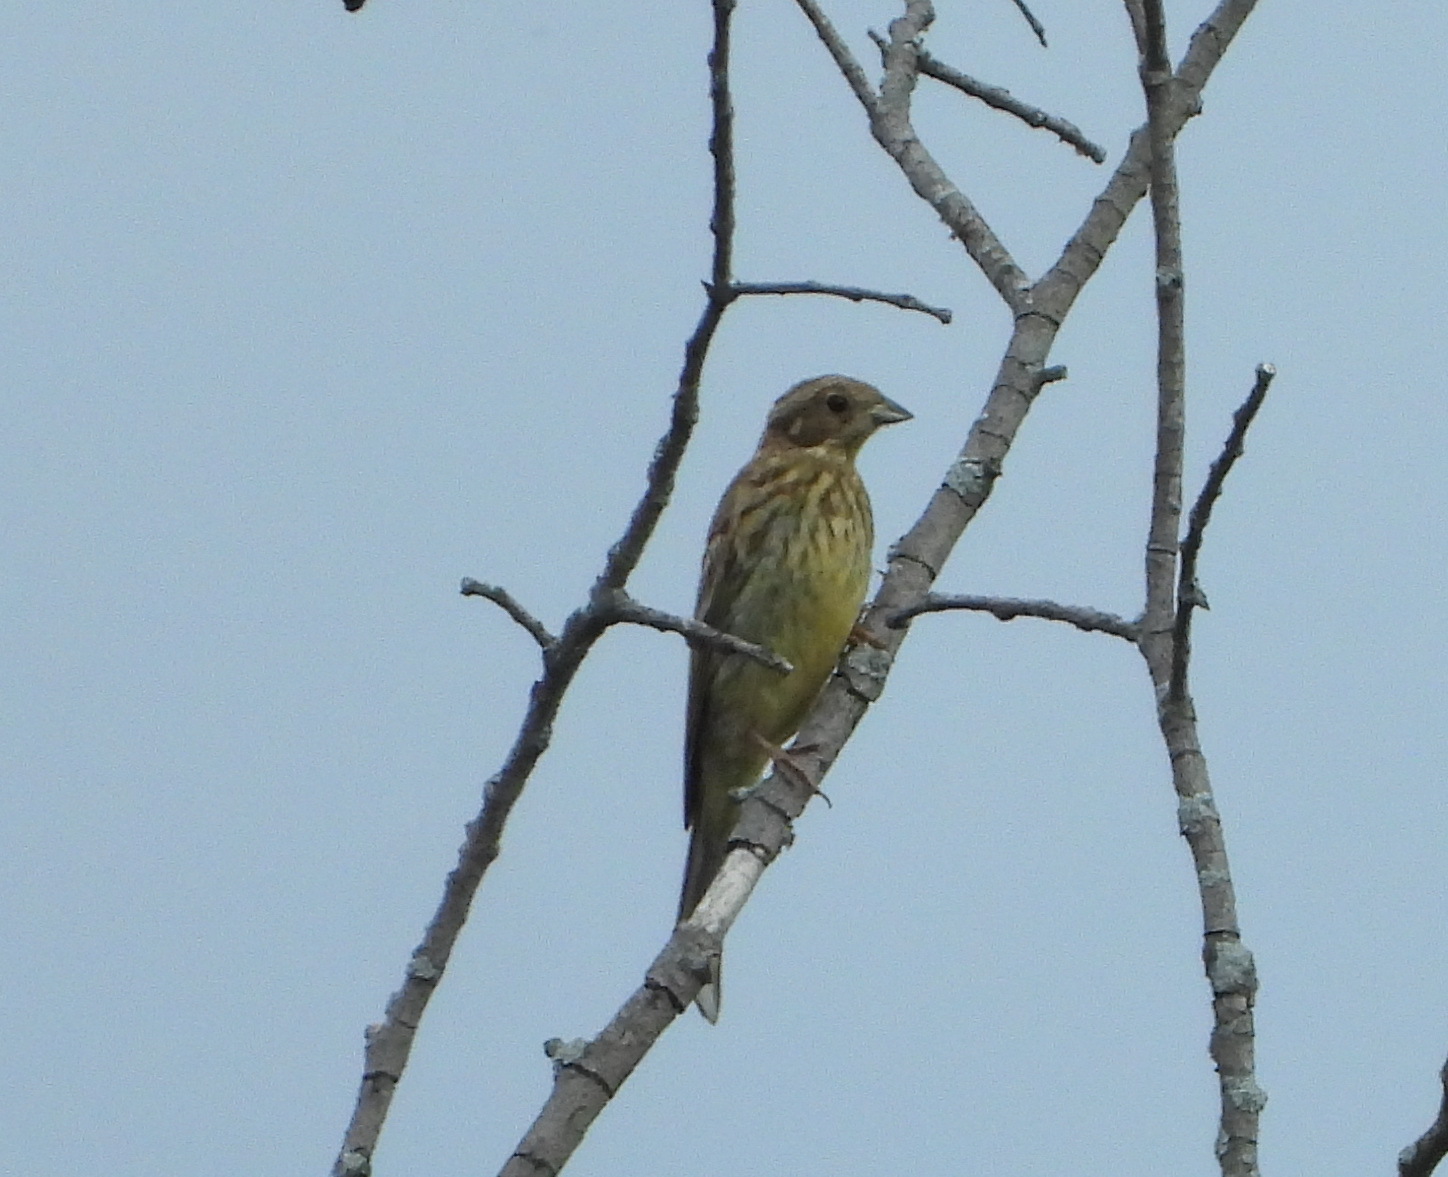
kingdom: Animalia
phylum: Chordata
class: Aves
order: Passeriformes
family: Emberizidae
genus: Emberiza
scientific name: Emberiza citrinella
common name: Yellowhammer
